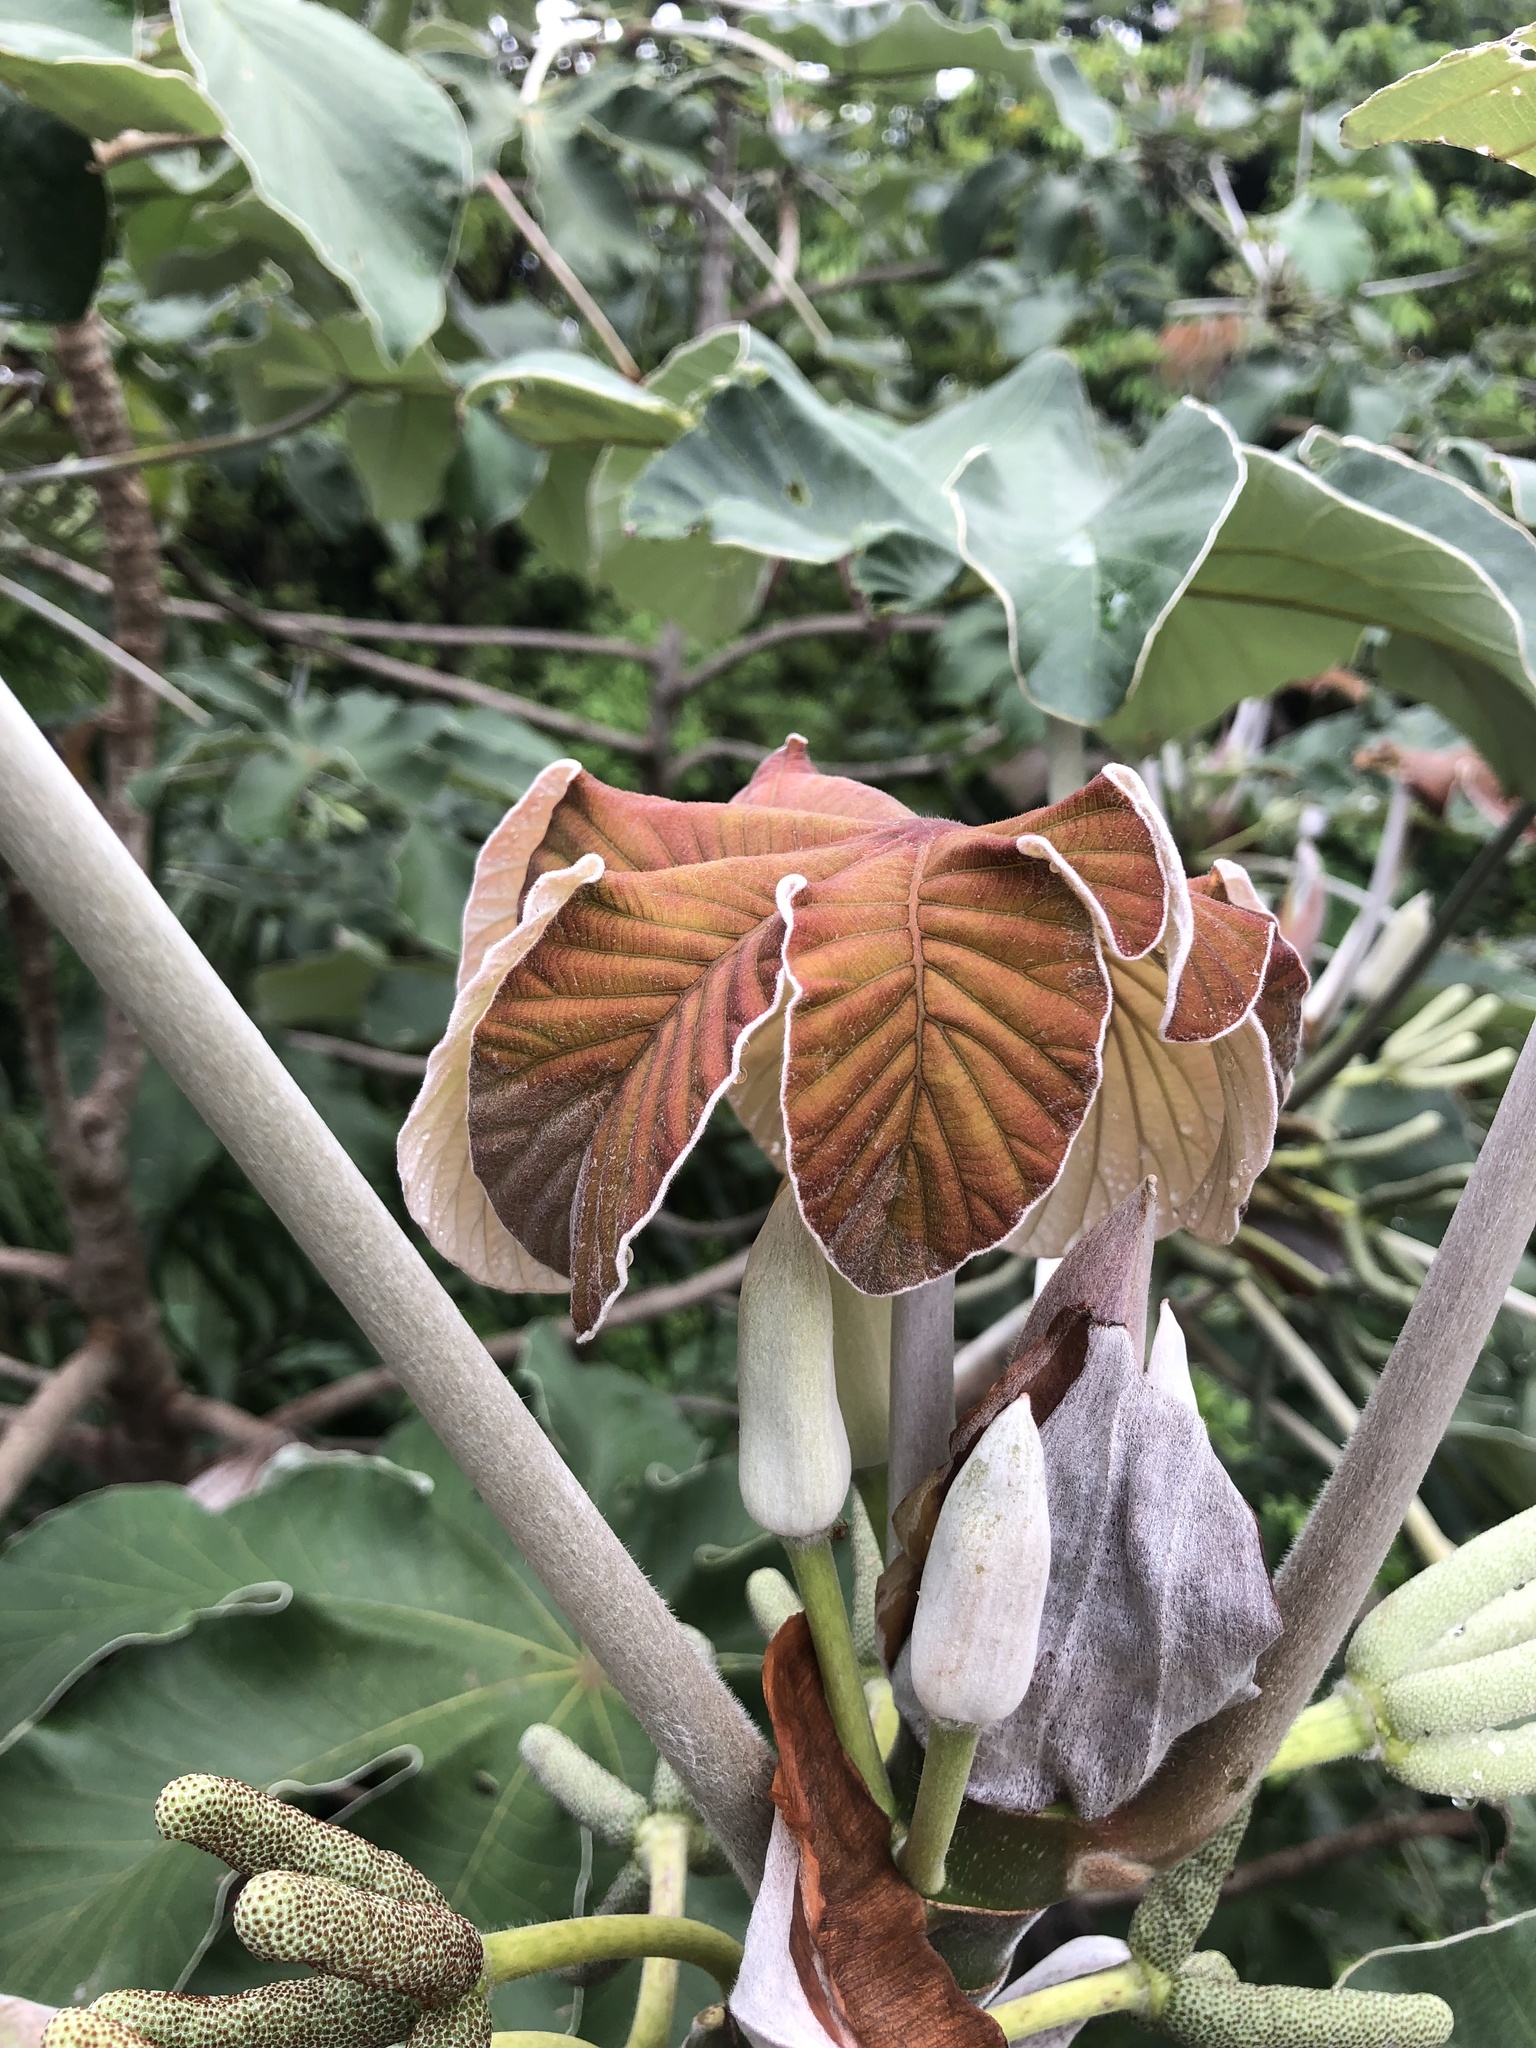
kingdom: Plantae
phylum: Tracheophyta
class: Magnoliopsida
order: Rosales
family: Urticaceae
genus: Cecropia
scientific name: Cecropia peltata
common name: Trumpet-tree
